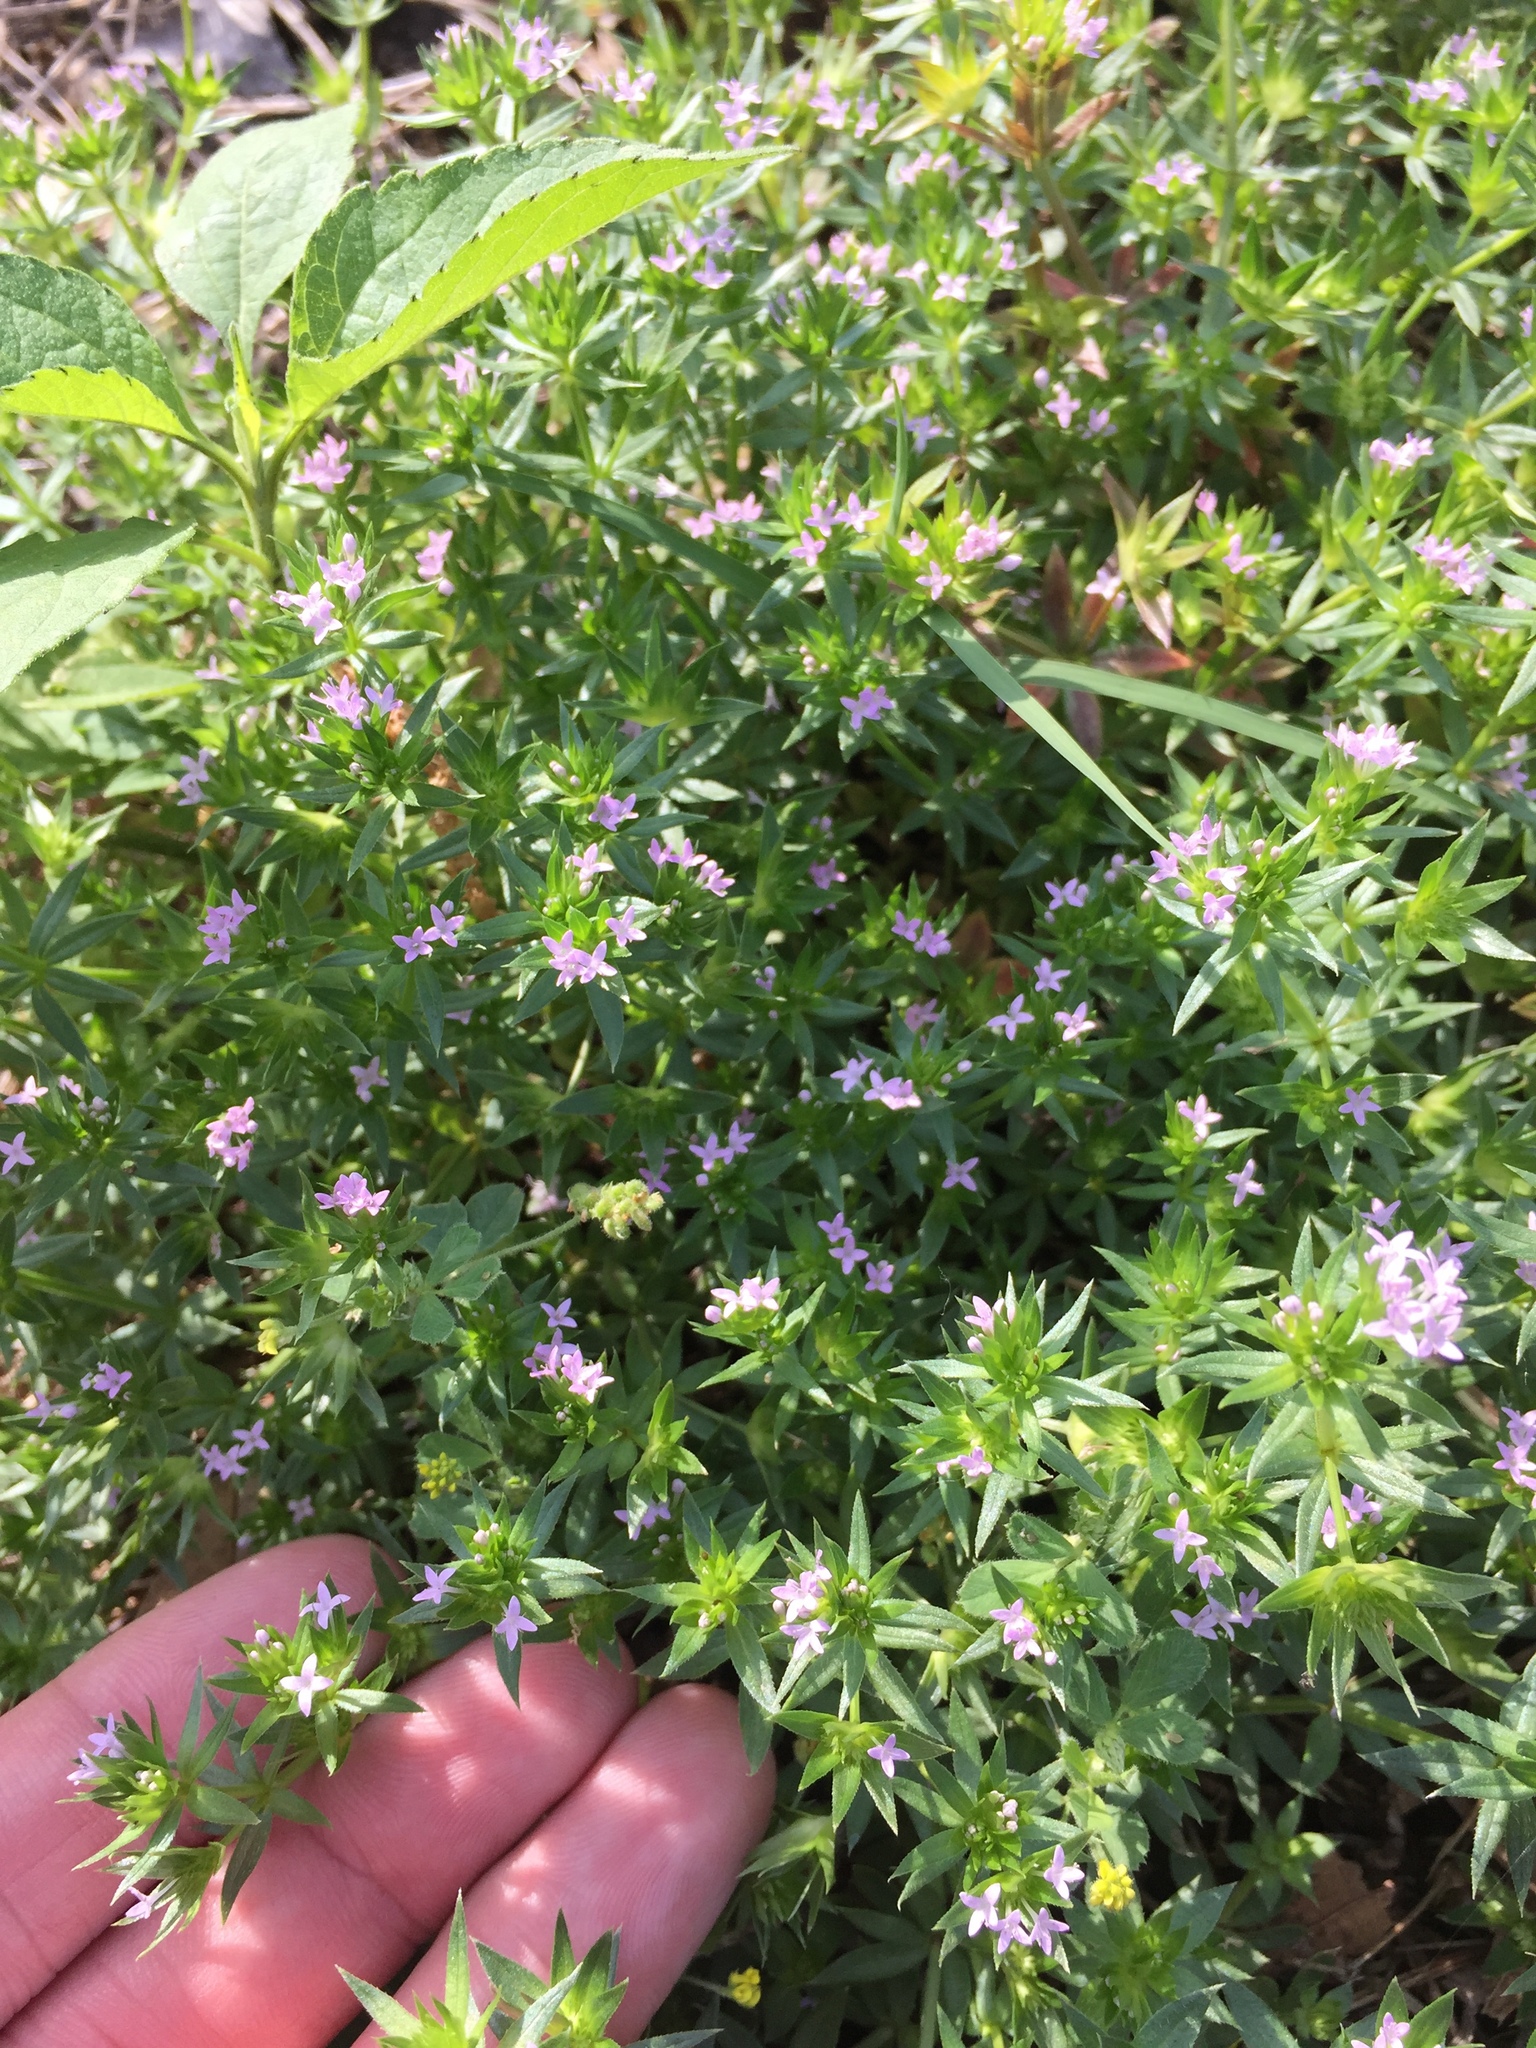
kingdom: Plantae
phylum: Tracheophyta
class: Magnoliopsida
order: Gentianales
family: Rubiaceae
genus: Sherardia
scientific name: Sherardia arvensis
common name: Field madder
